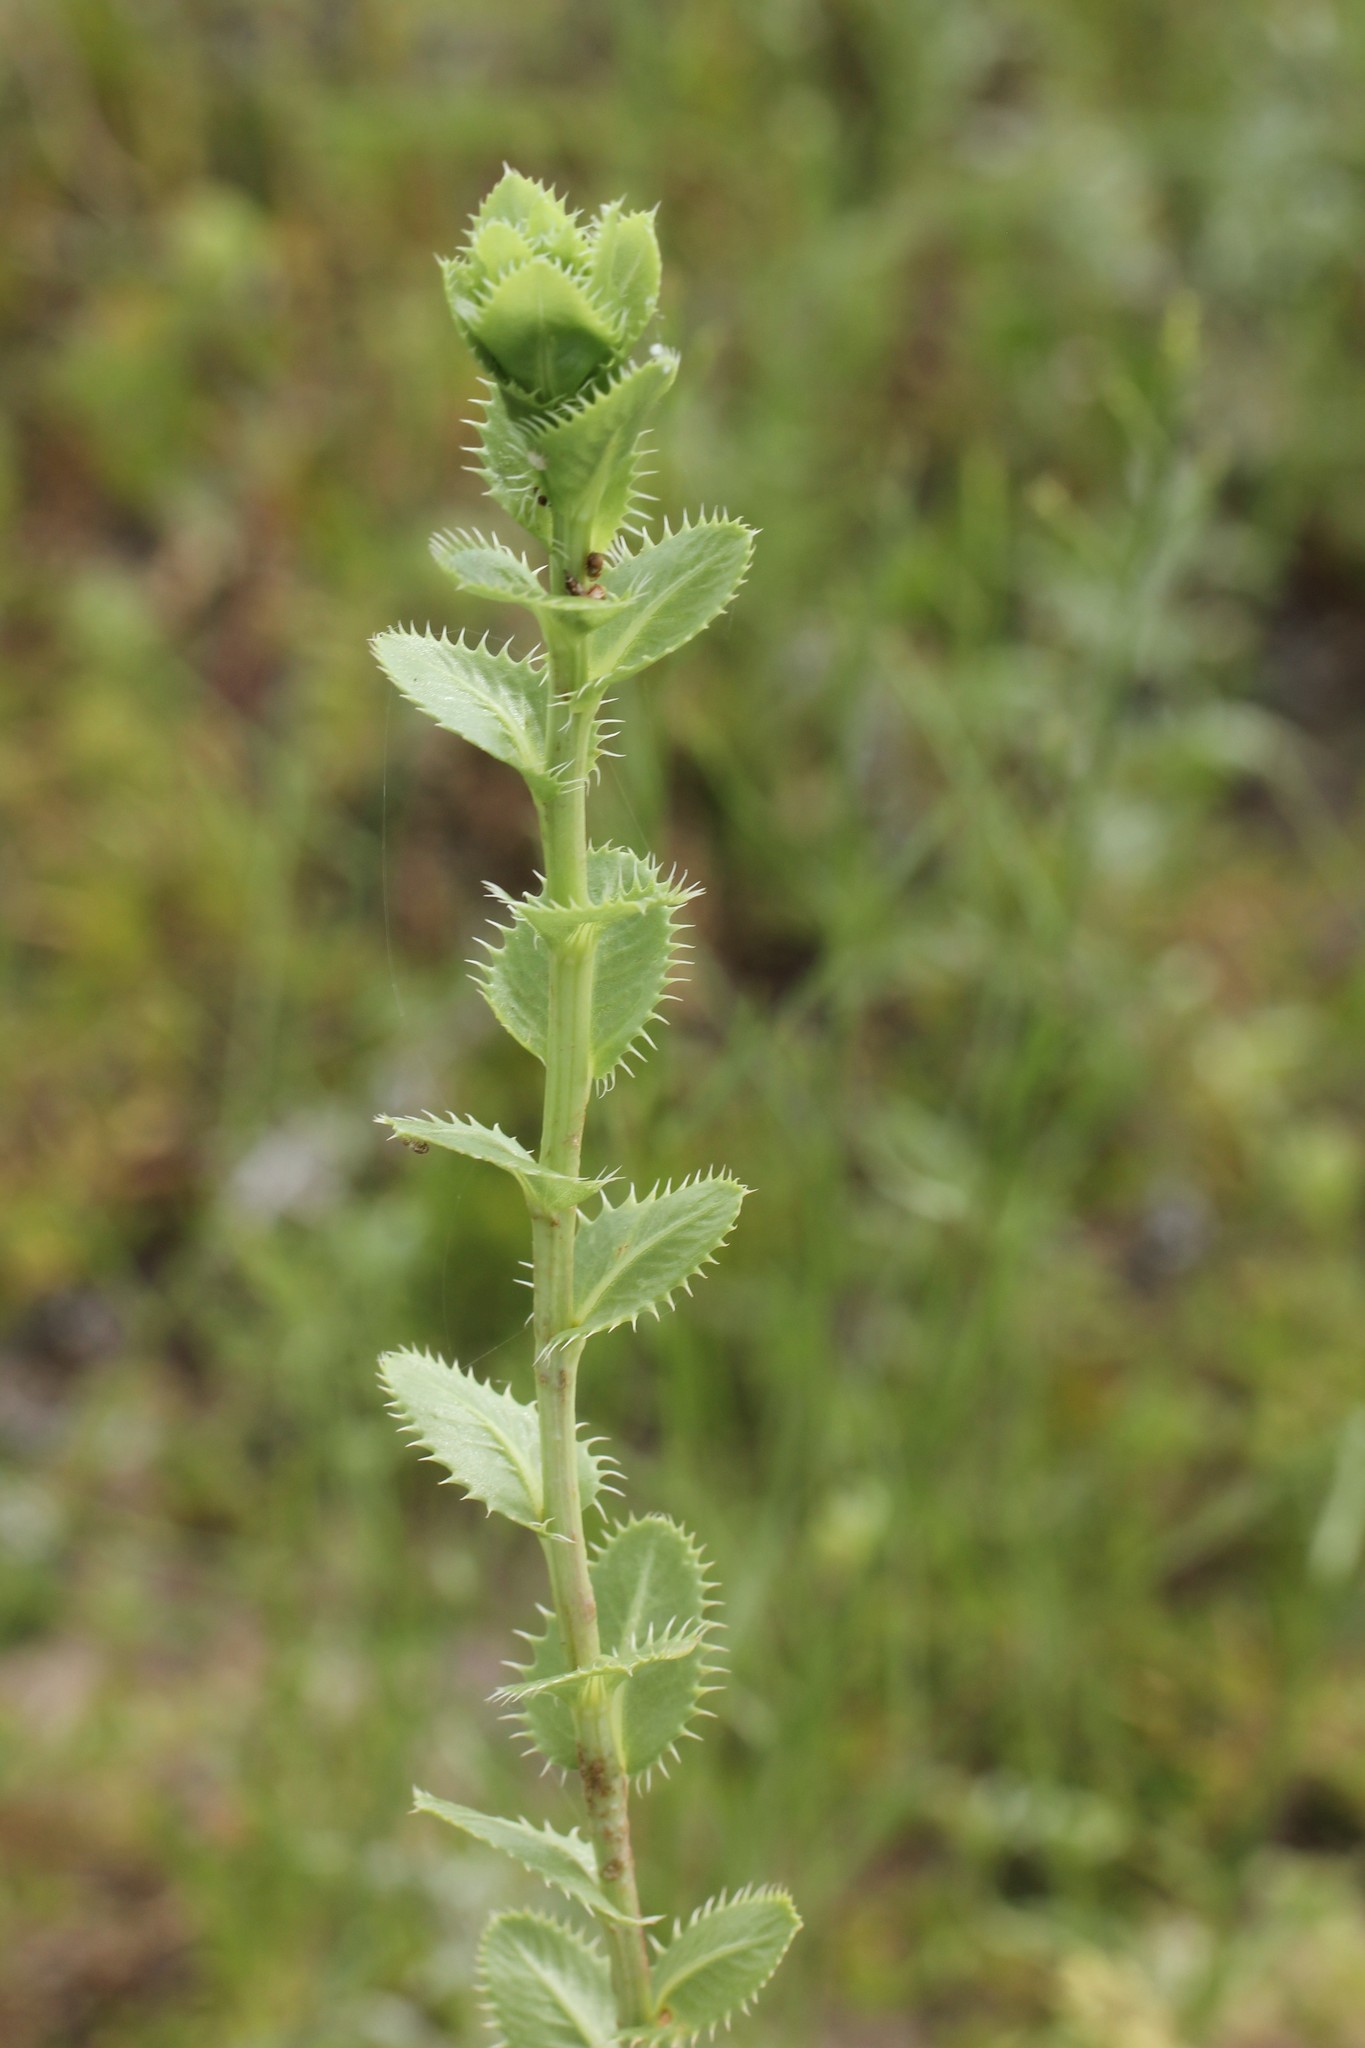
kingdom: Plantae
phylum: Tracheophyta
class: Magnoliopsida
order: Asterales
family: Asteraceae
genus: Grindelia
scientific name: Grindelia ciliata
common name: Goldenweed
